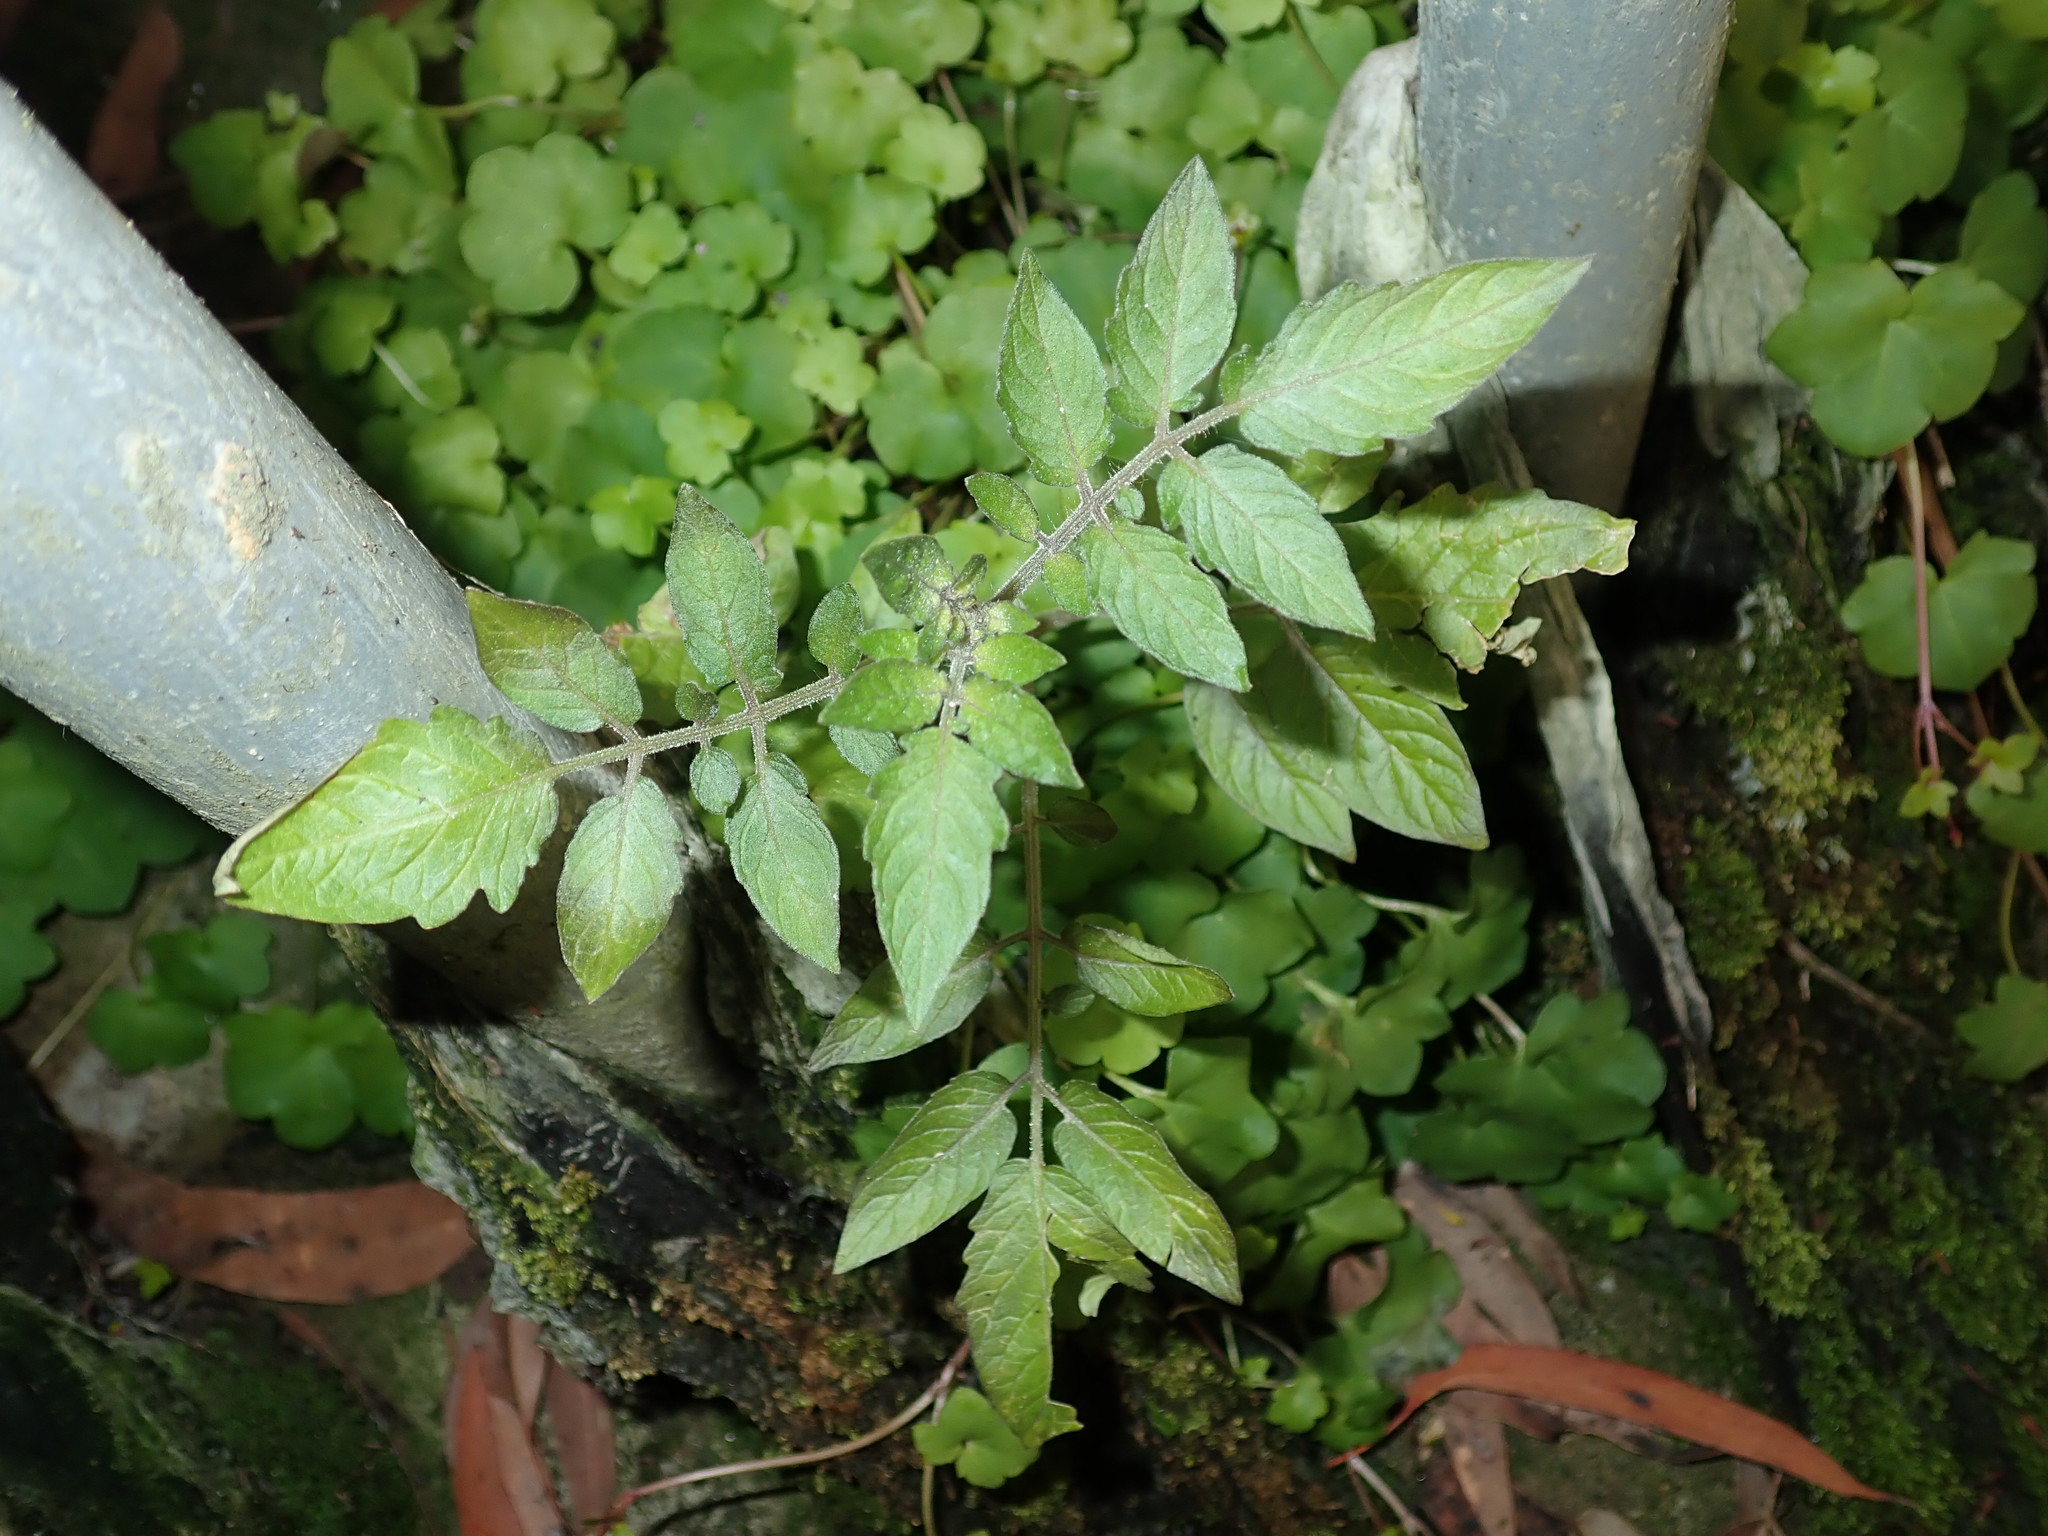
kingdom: Plantae
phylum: Tracheophyta
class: Magnoliopsida
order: Solanales
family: Solanaceae
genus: Solanum
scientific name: Solanum lycopersicum
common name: Garden tomato
